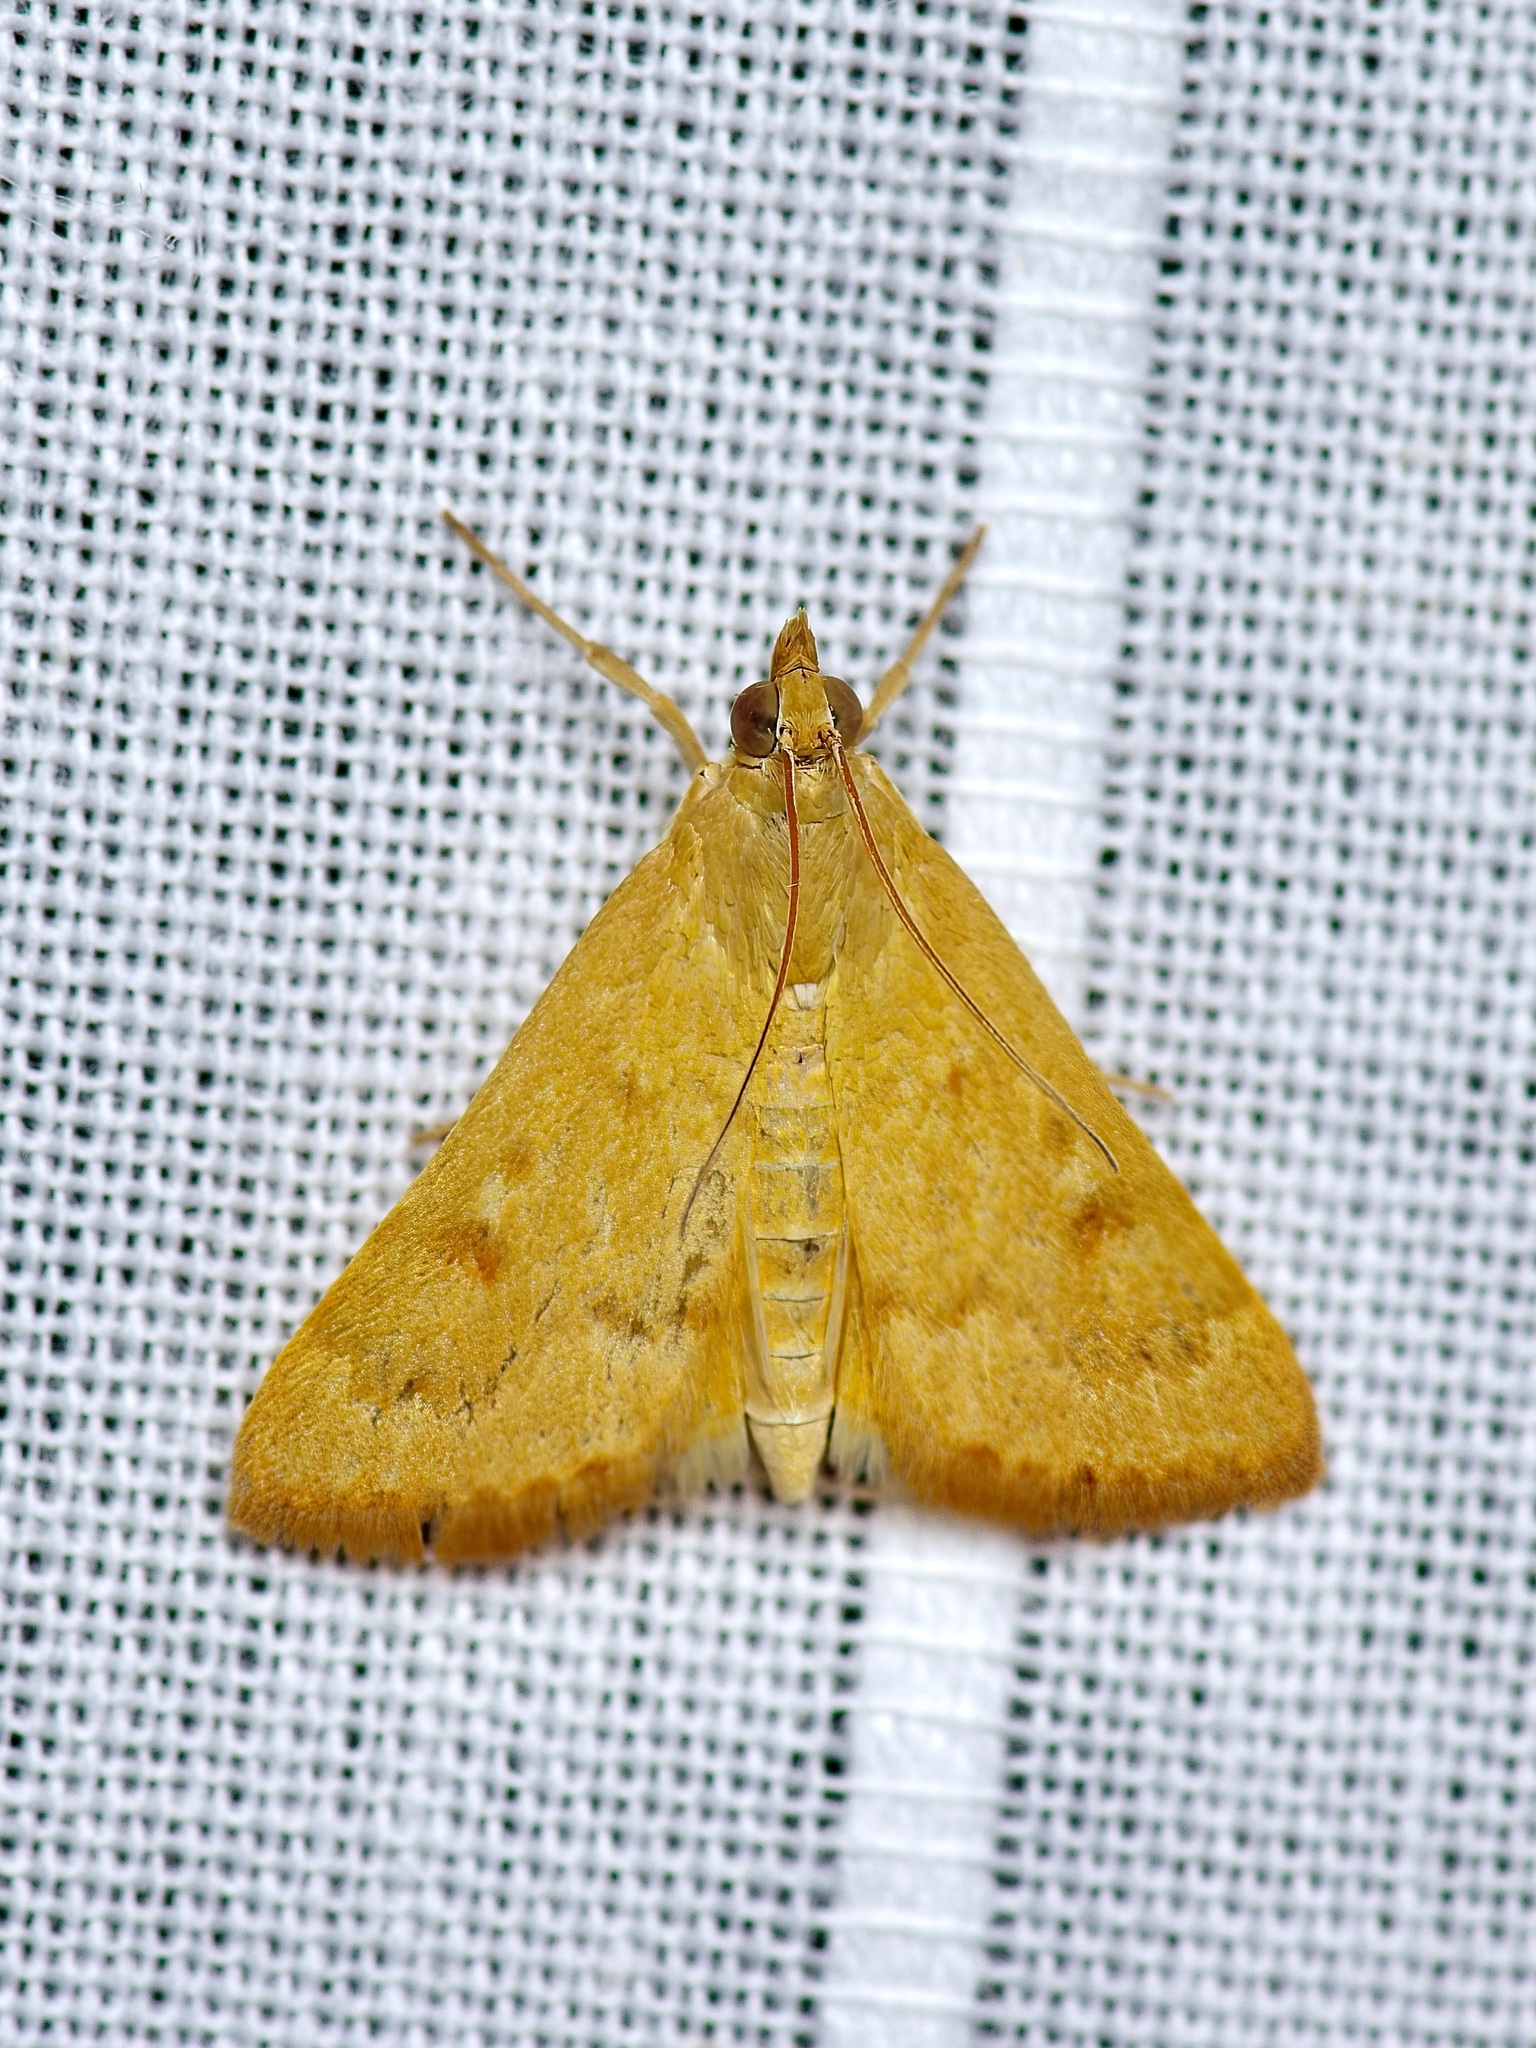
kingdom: Animalia
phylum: Arthropoda
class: Insecta
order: Lepidoptera
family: Crambidae
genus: Achyra
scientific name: Achyra rantalis
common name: Garden webworm
